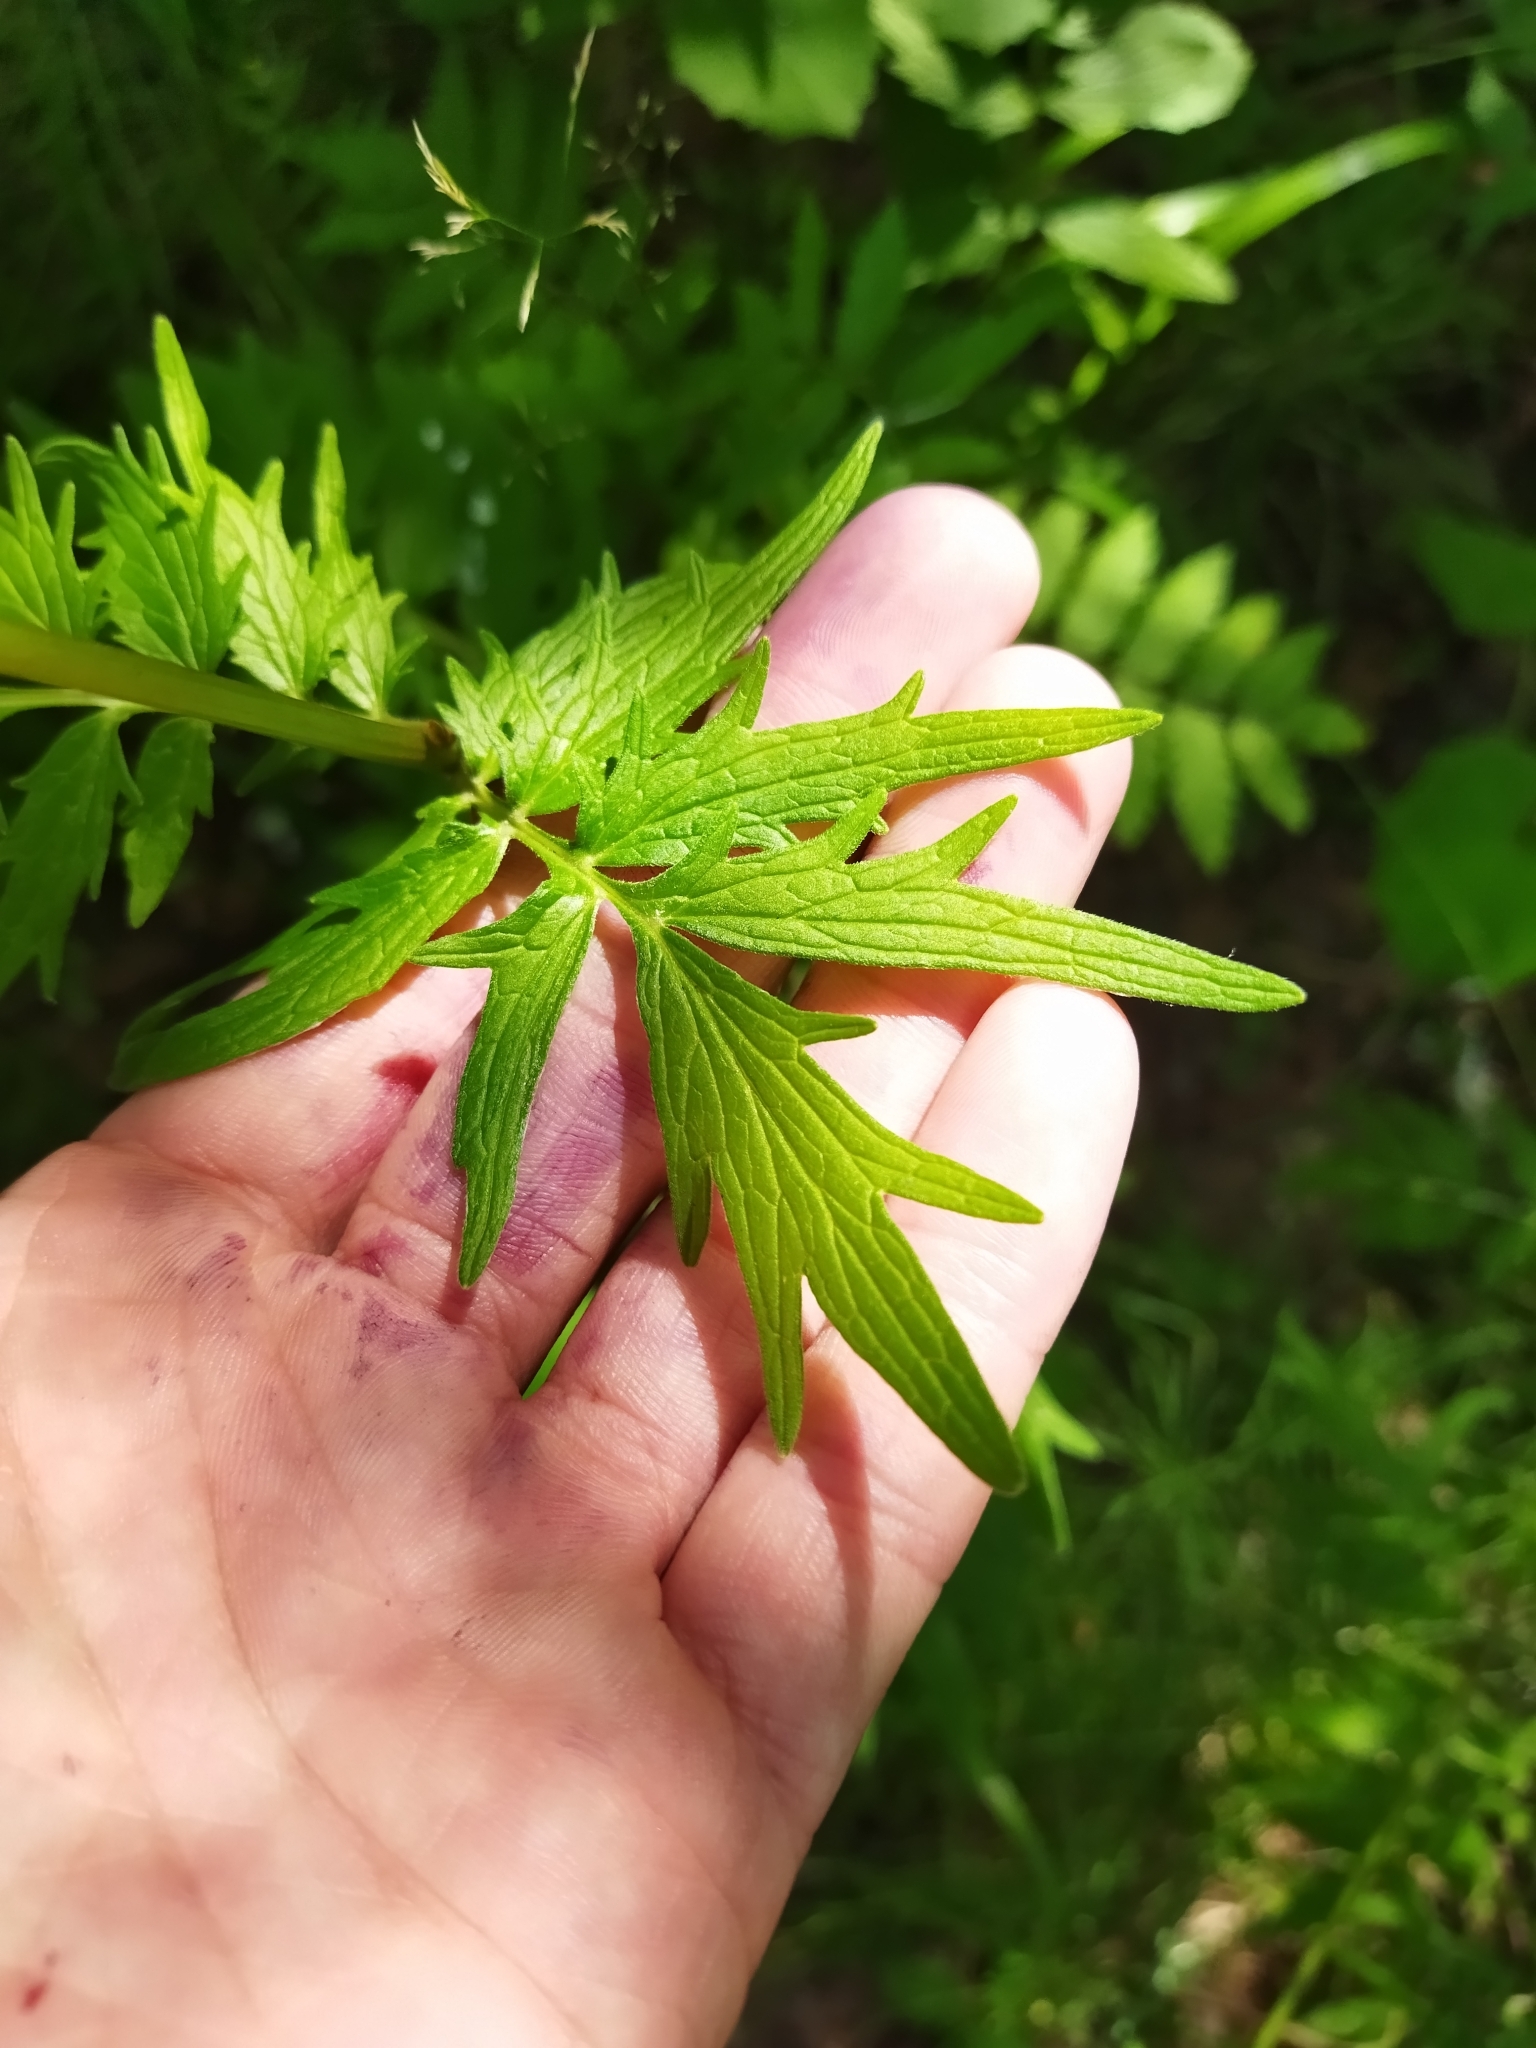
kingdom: Plantae
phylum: Tracheophyta
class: Magnoliopsida
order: Dipsacales
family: Caprifoliaceae
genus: Valeriana
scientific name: Valeriana officinalis
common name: Common valerian
